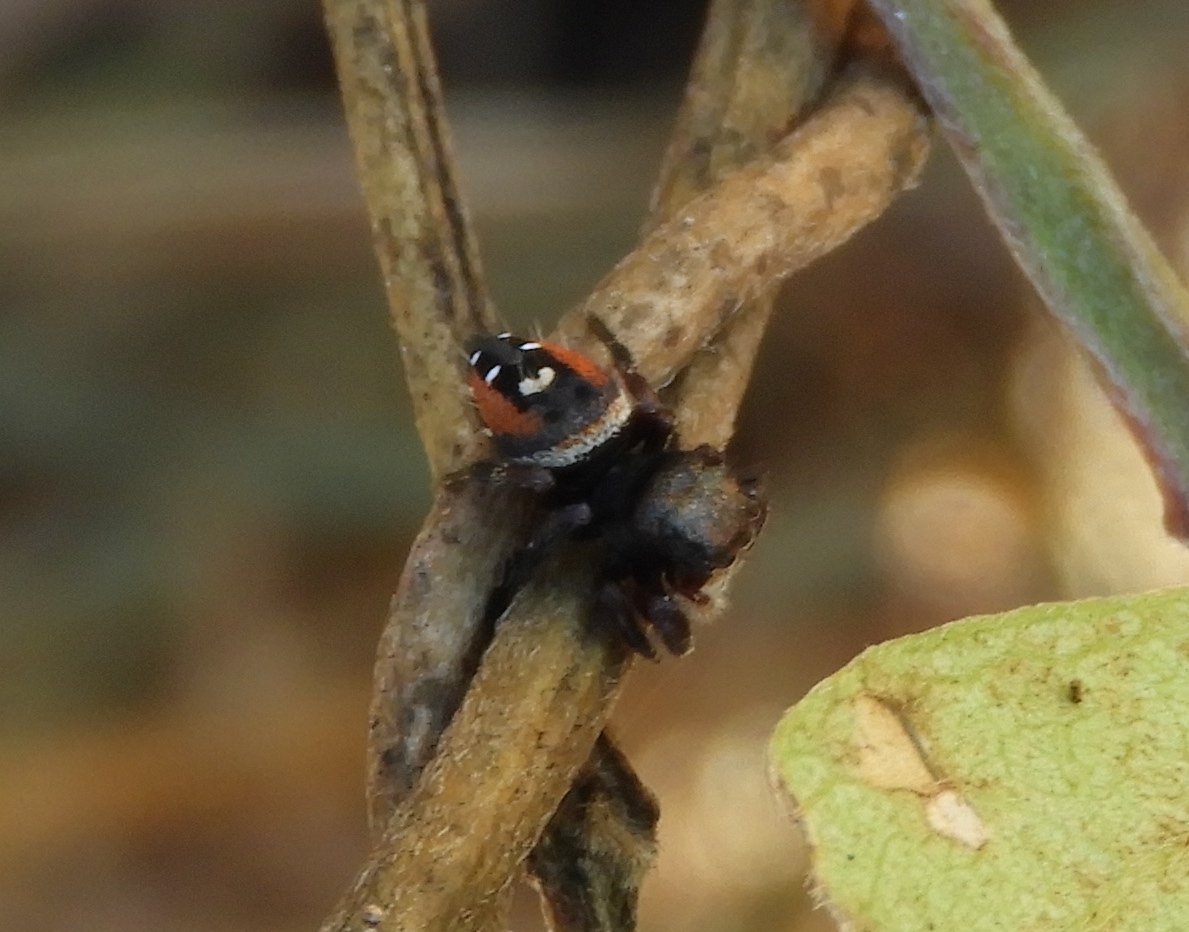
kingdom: Animalia
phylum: Arthropoda
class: Arachnida
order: Araneae
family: Salticidae
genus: Phidippus
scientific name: Phidippus
